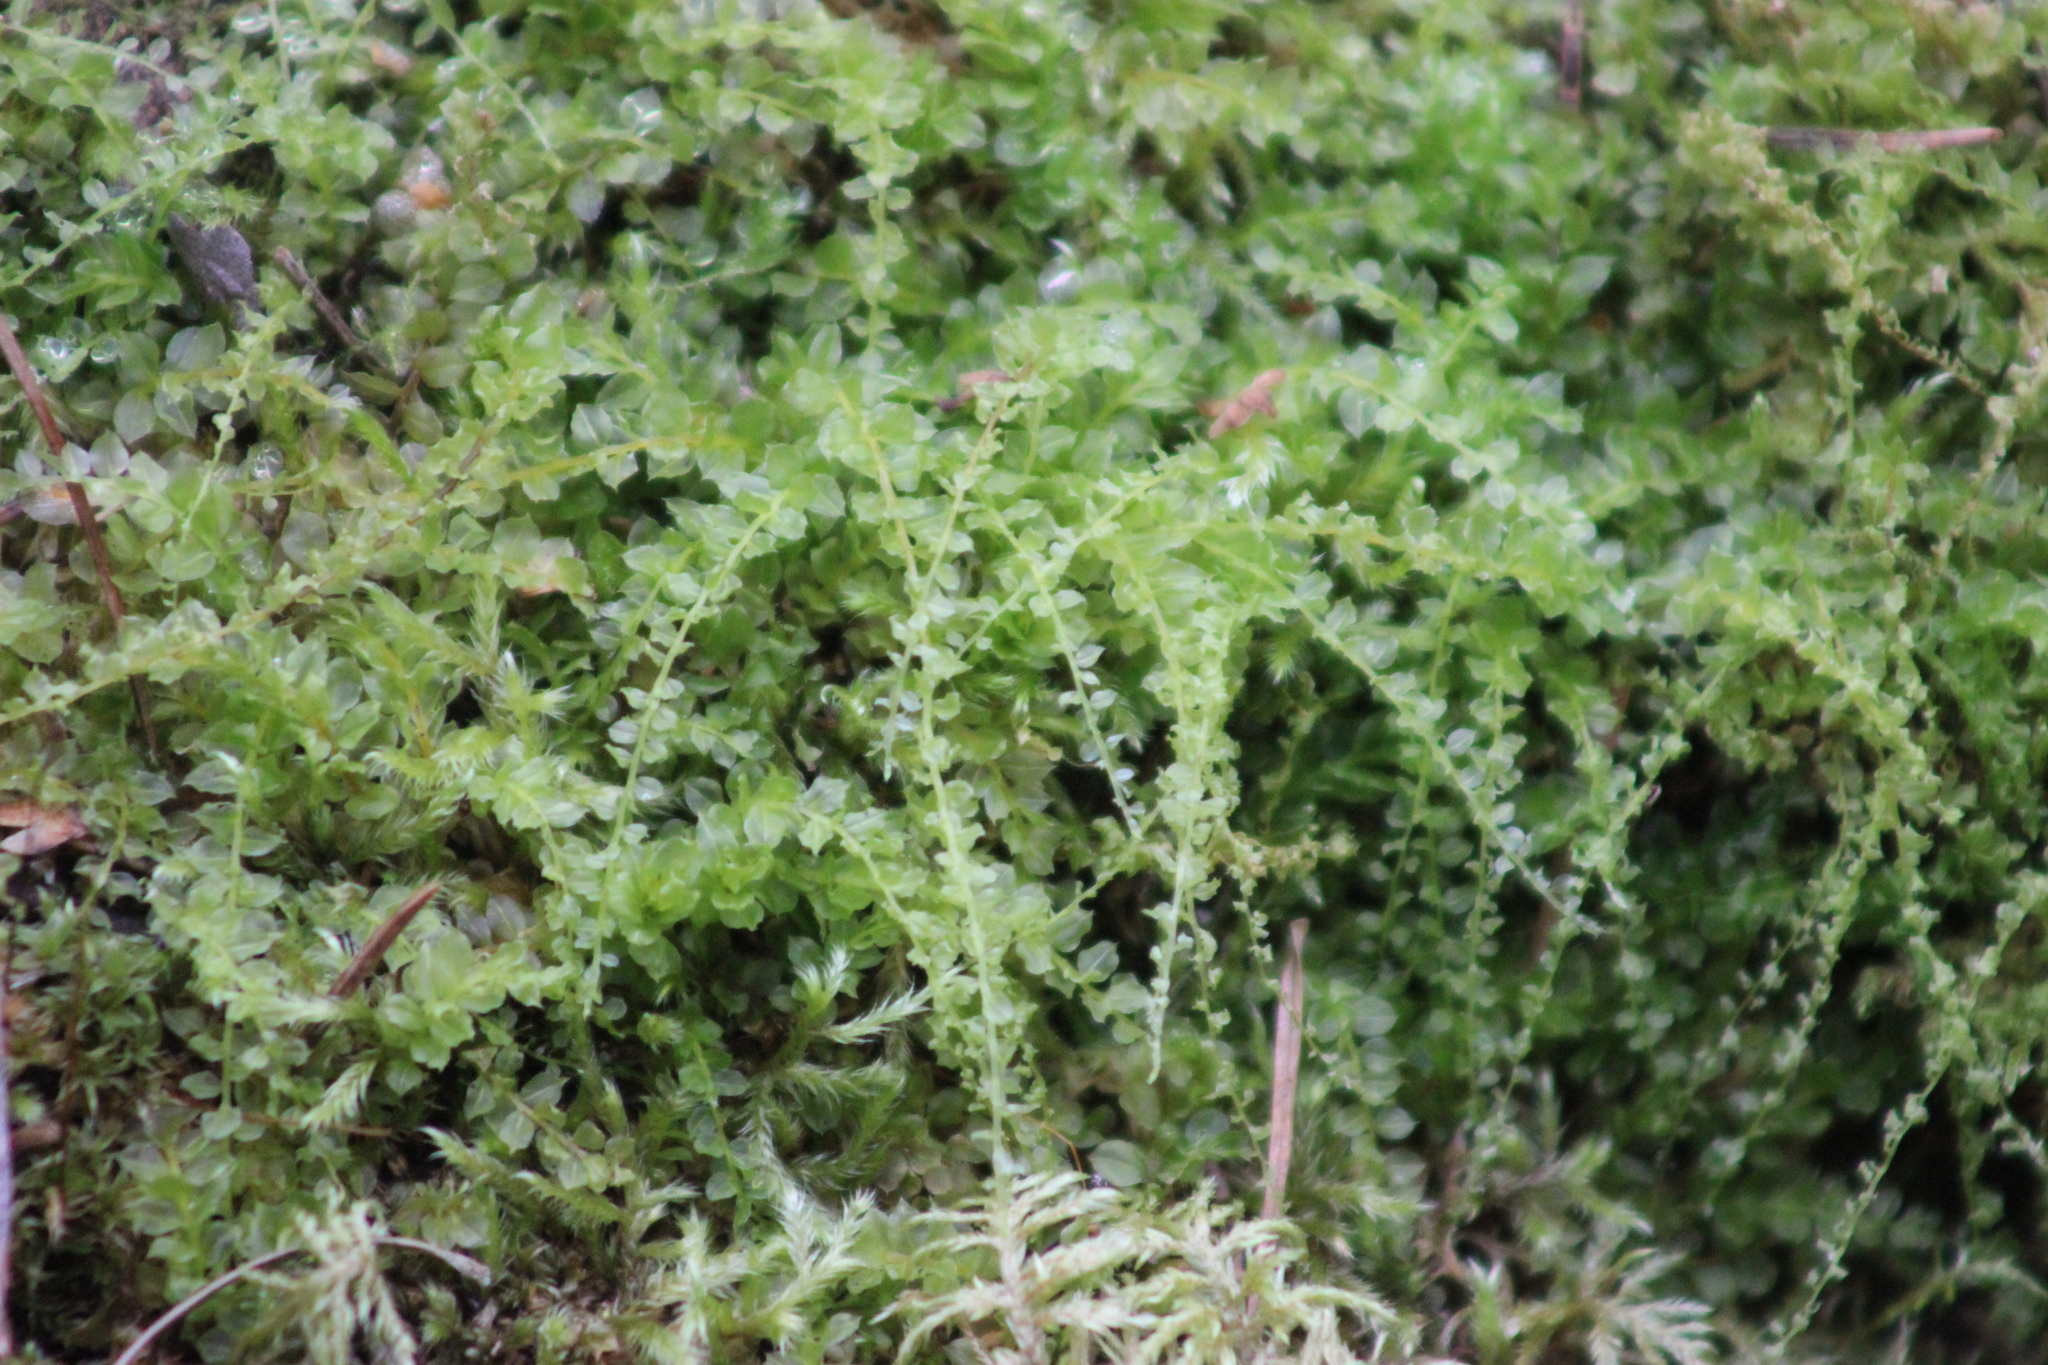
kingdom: Plantae
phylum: Bryophyta
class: Bryopsida
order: Bryales
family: Mniaceae
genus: Plagiomnium
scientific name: Plagiomnium cuspidatum
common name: Woodsy leafy moss
